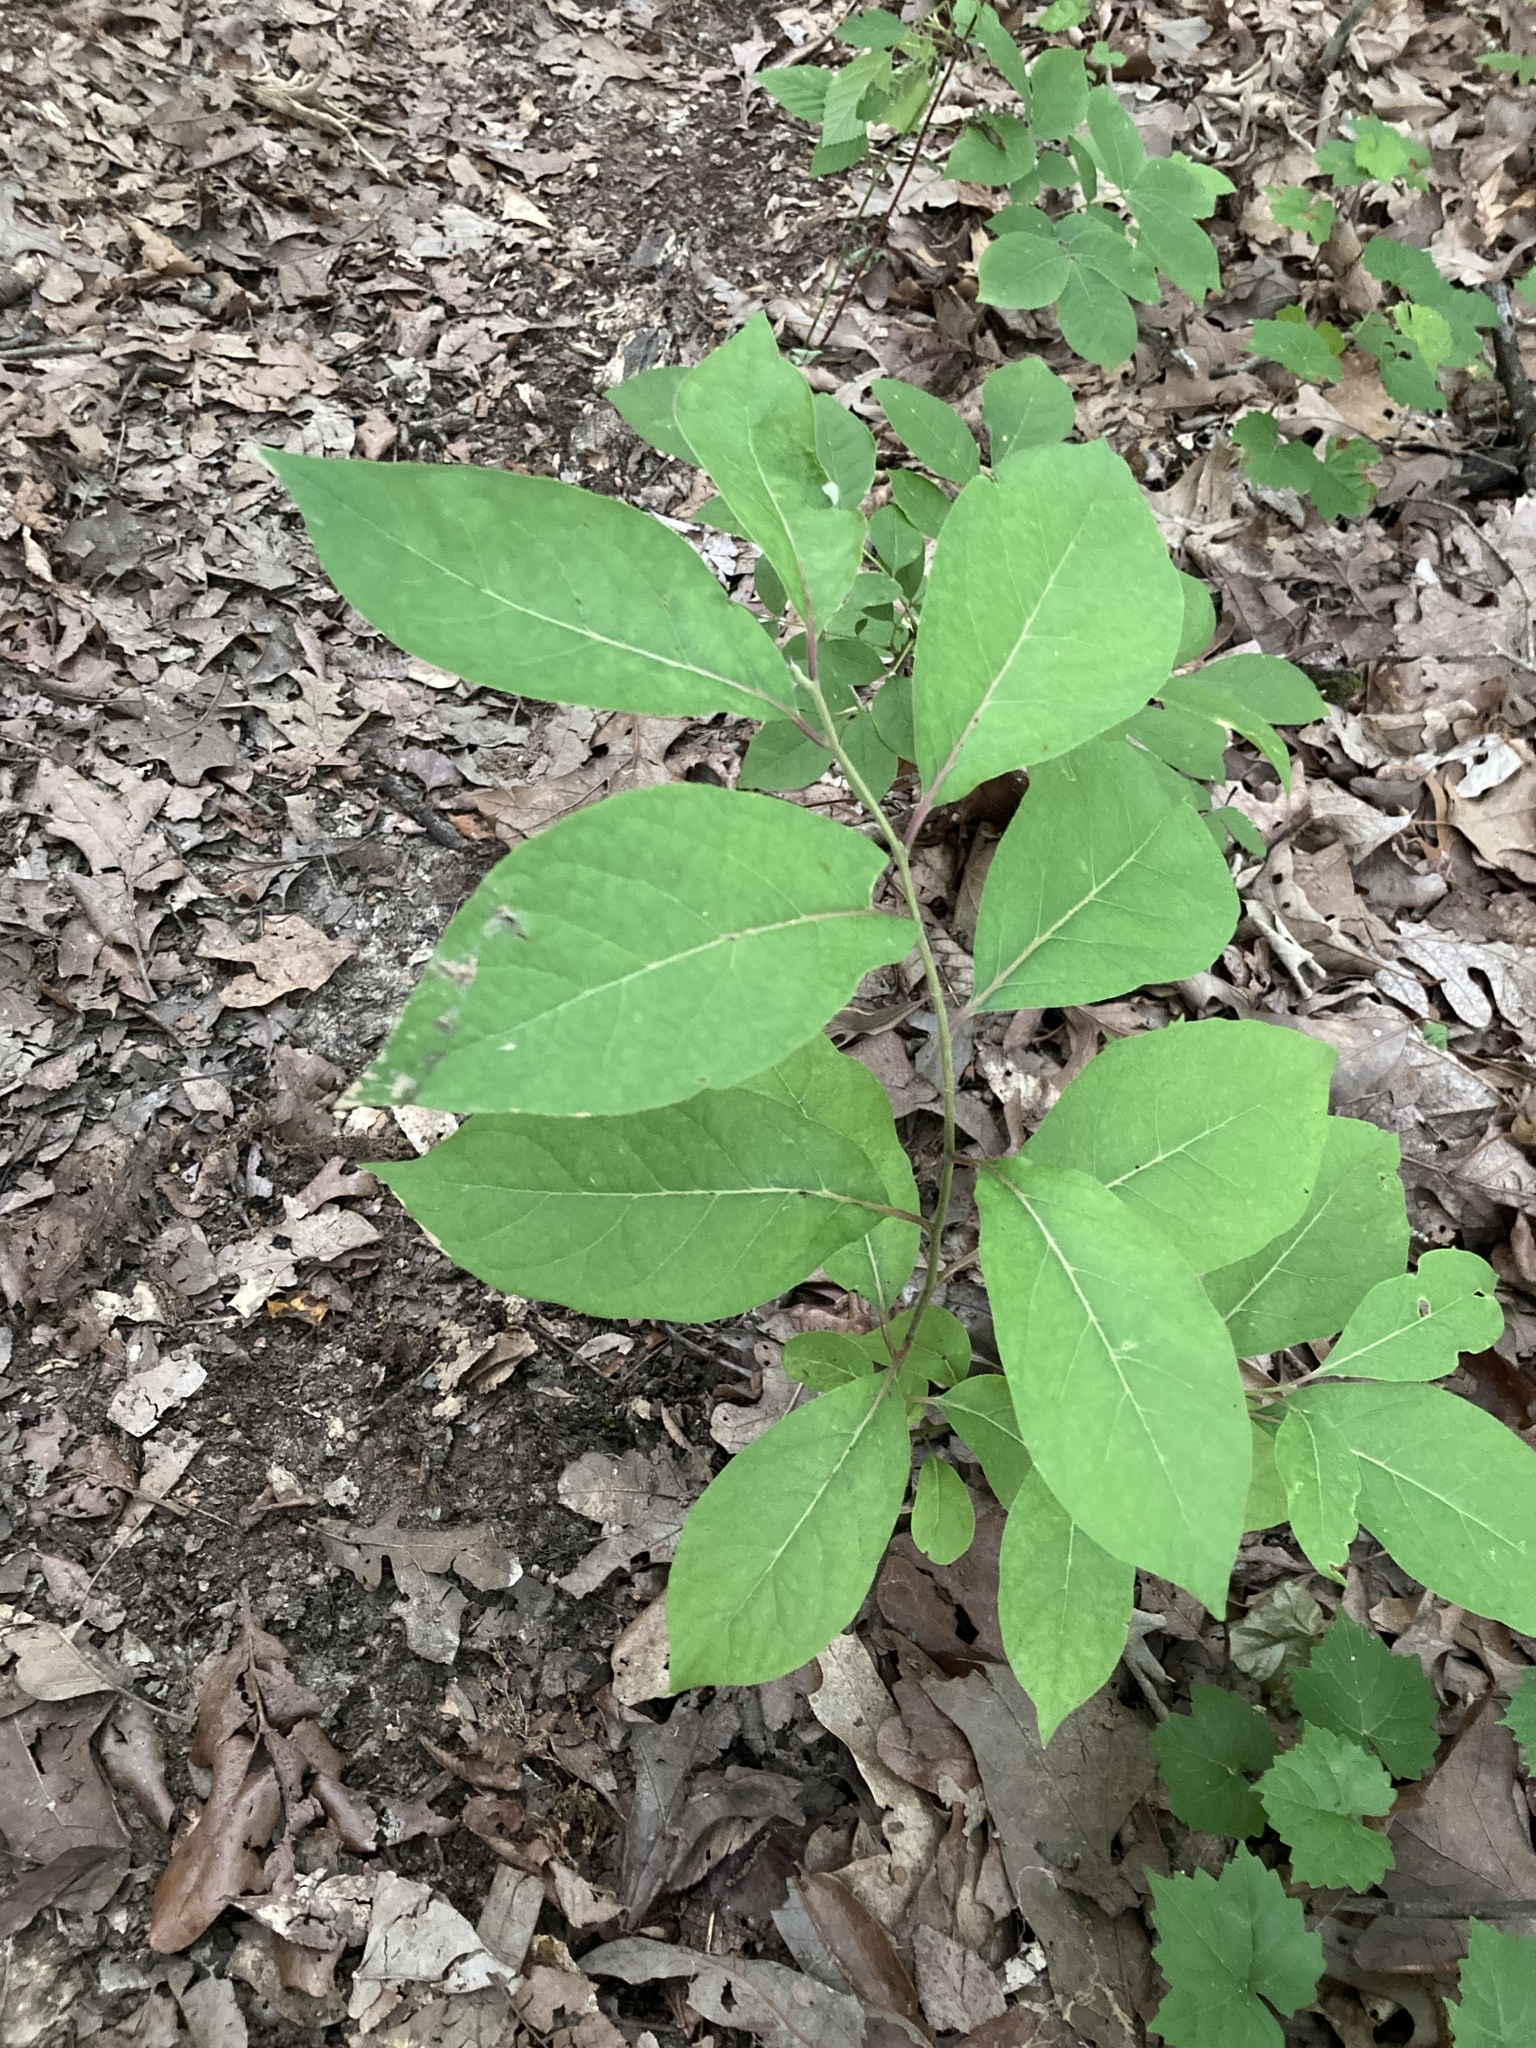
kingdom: Plantae
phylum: Tracheophyta
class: Magnoliopsida
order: Laurales
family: Lauraceae
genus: Lindera
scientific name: Lindera benzoin
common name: Spicebush
